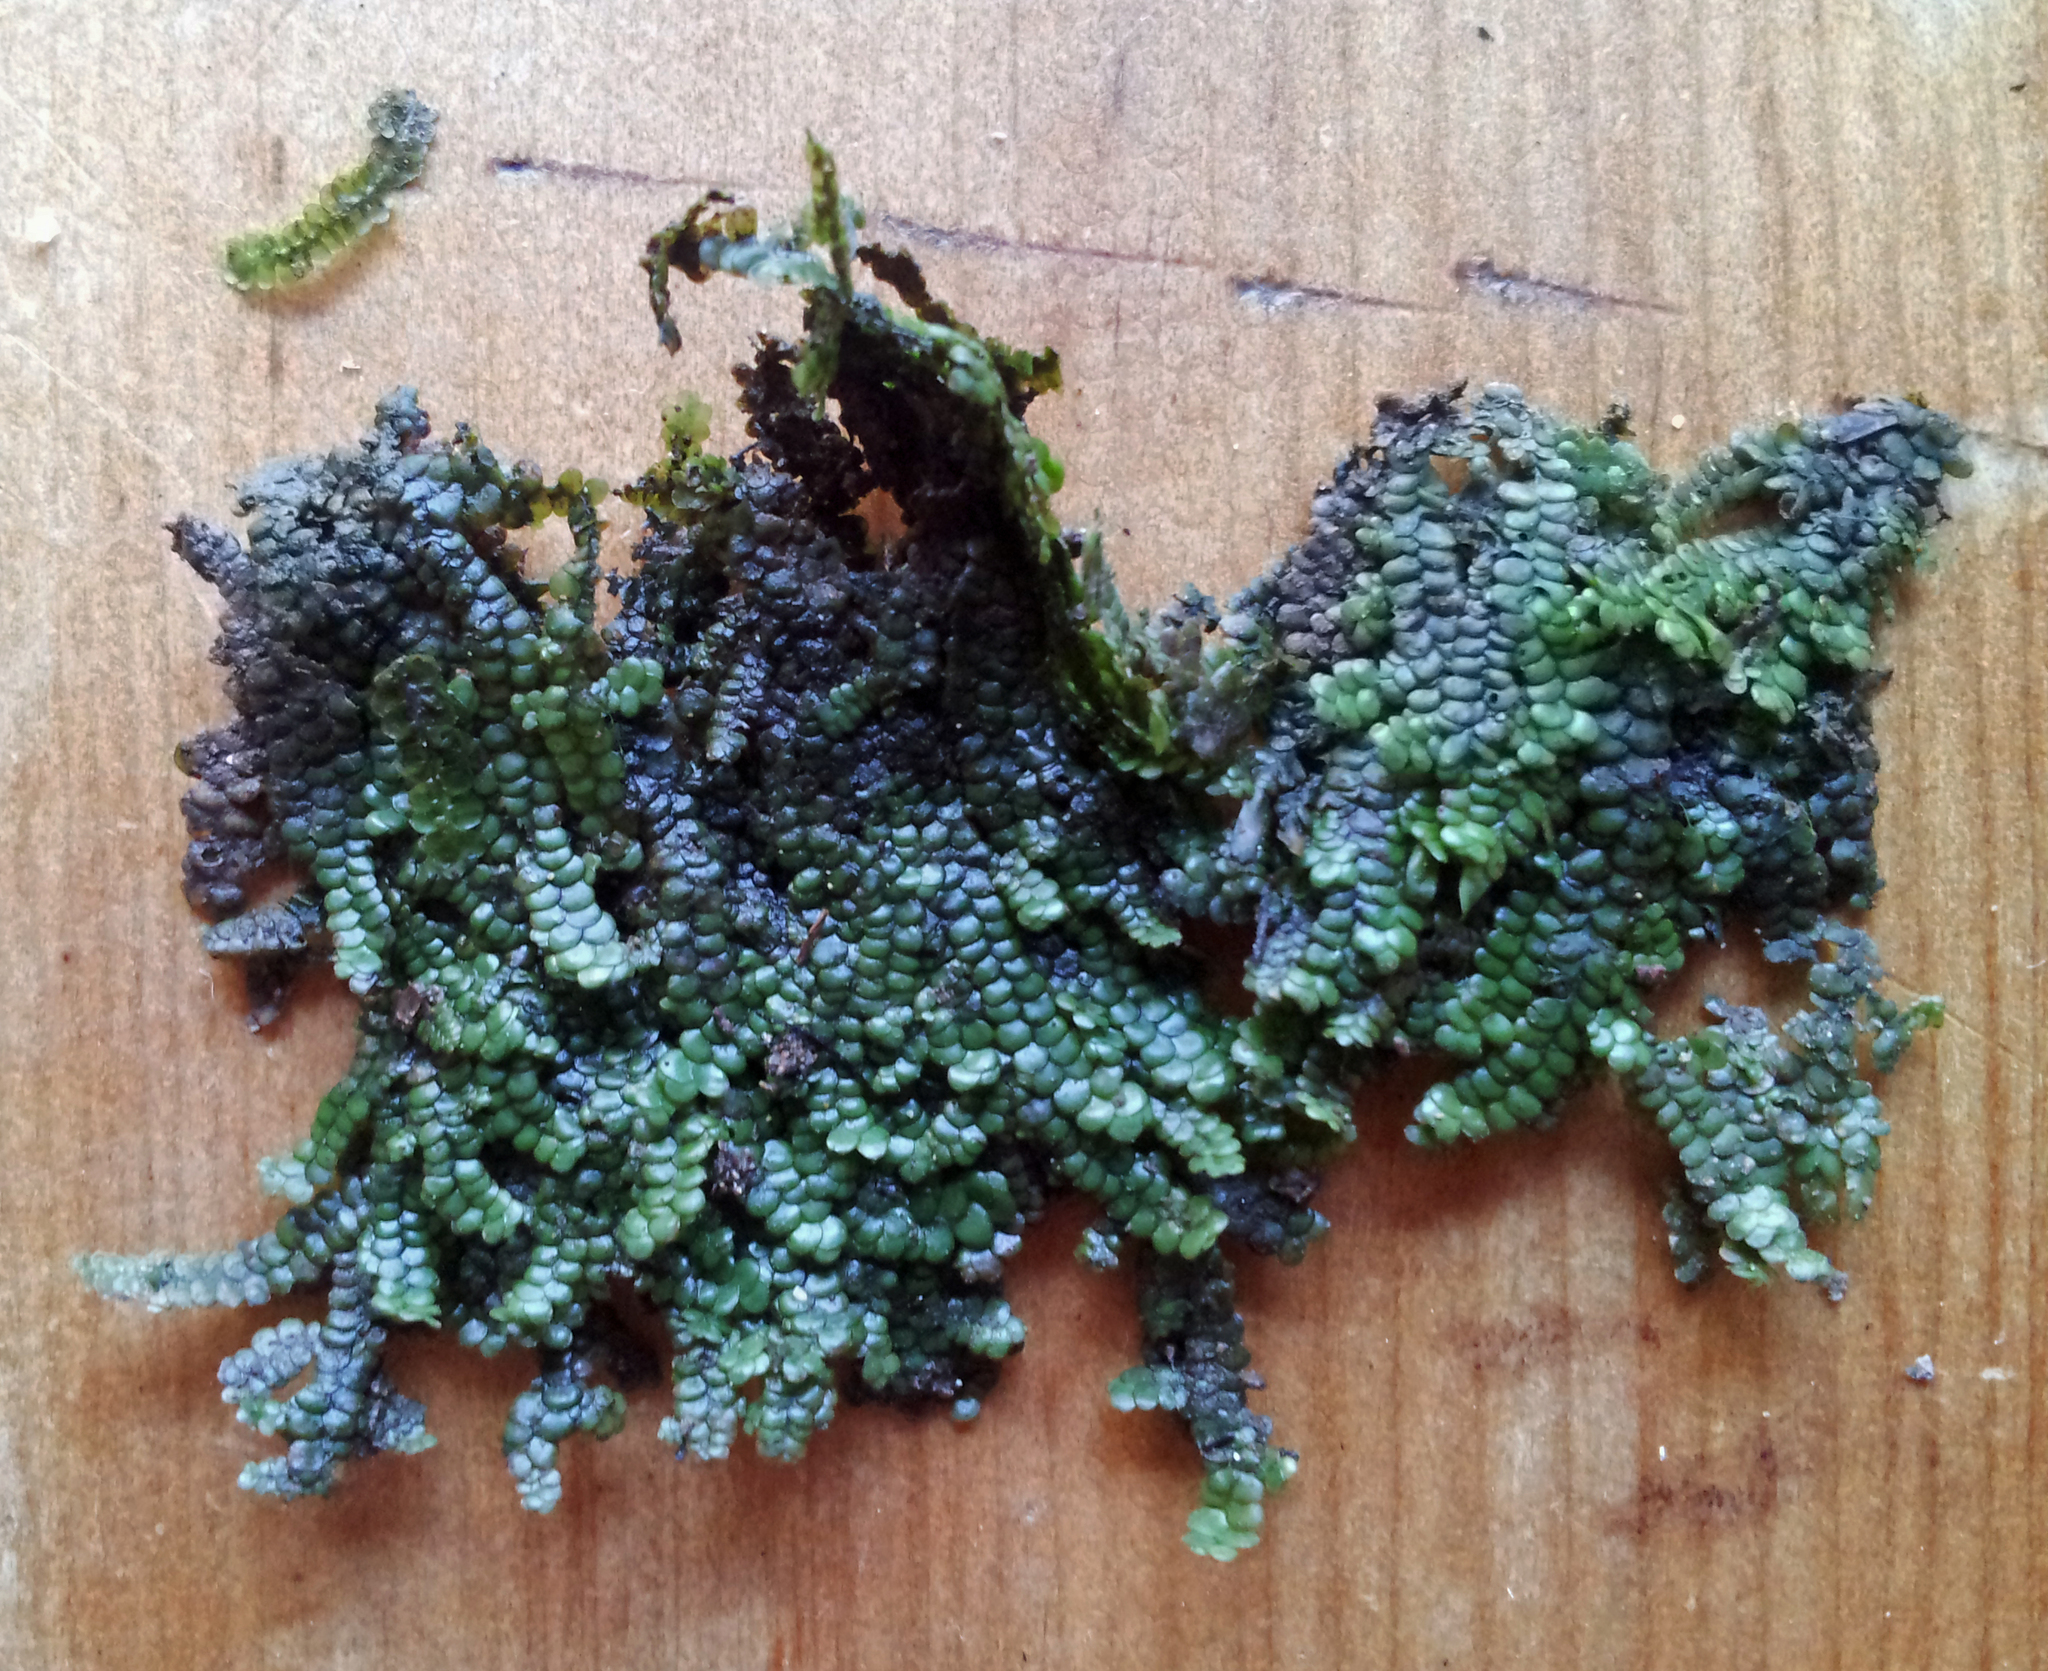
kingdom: Plantae
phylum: Marchantiophyta
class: Jungermanniopsida
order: Porellales
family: Radulaceae
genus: Radula
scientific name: Radula marginata
